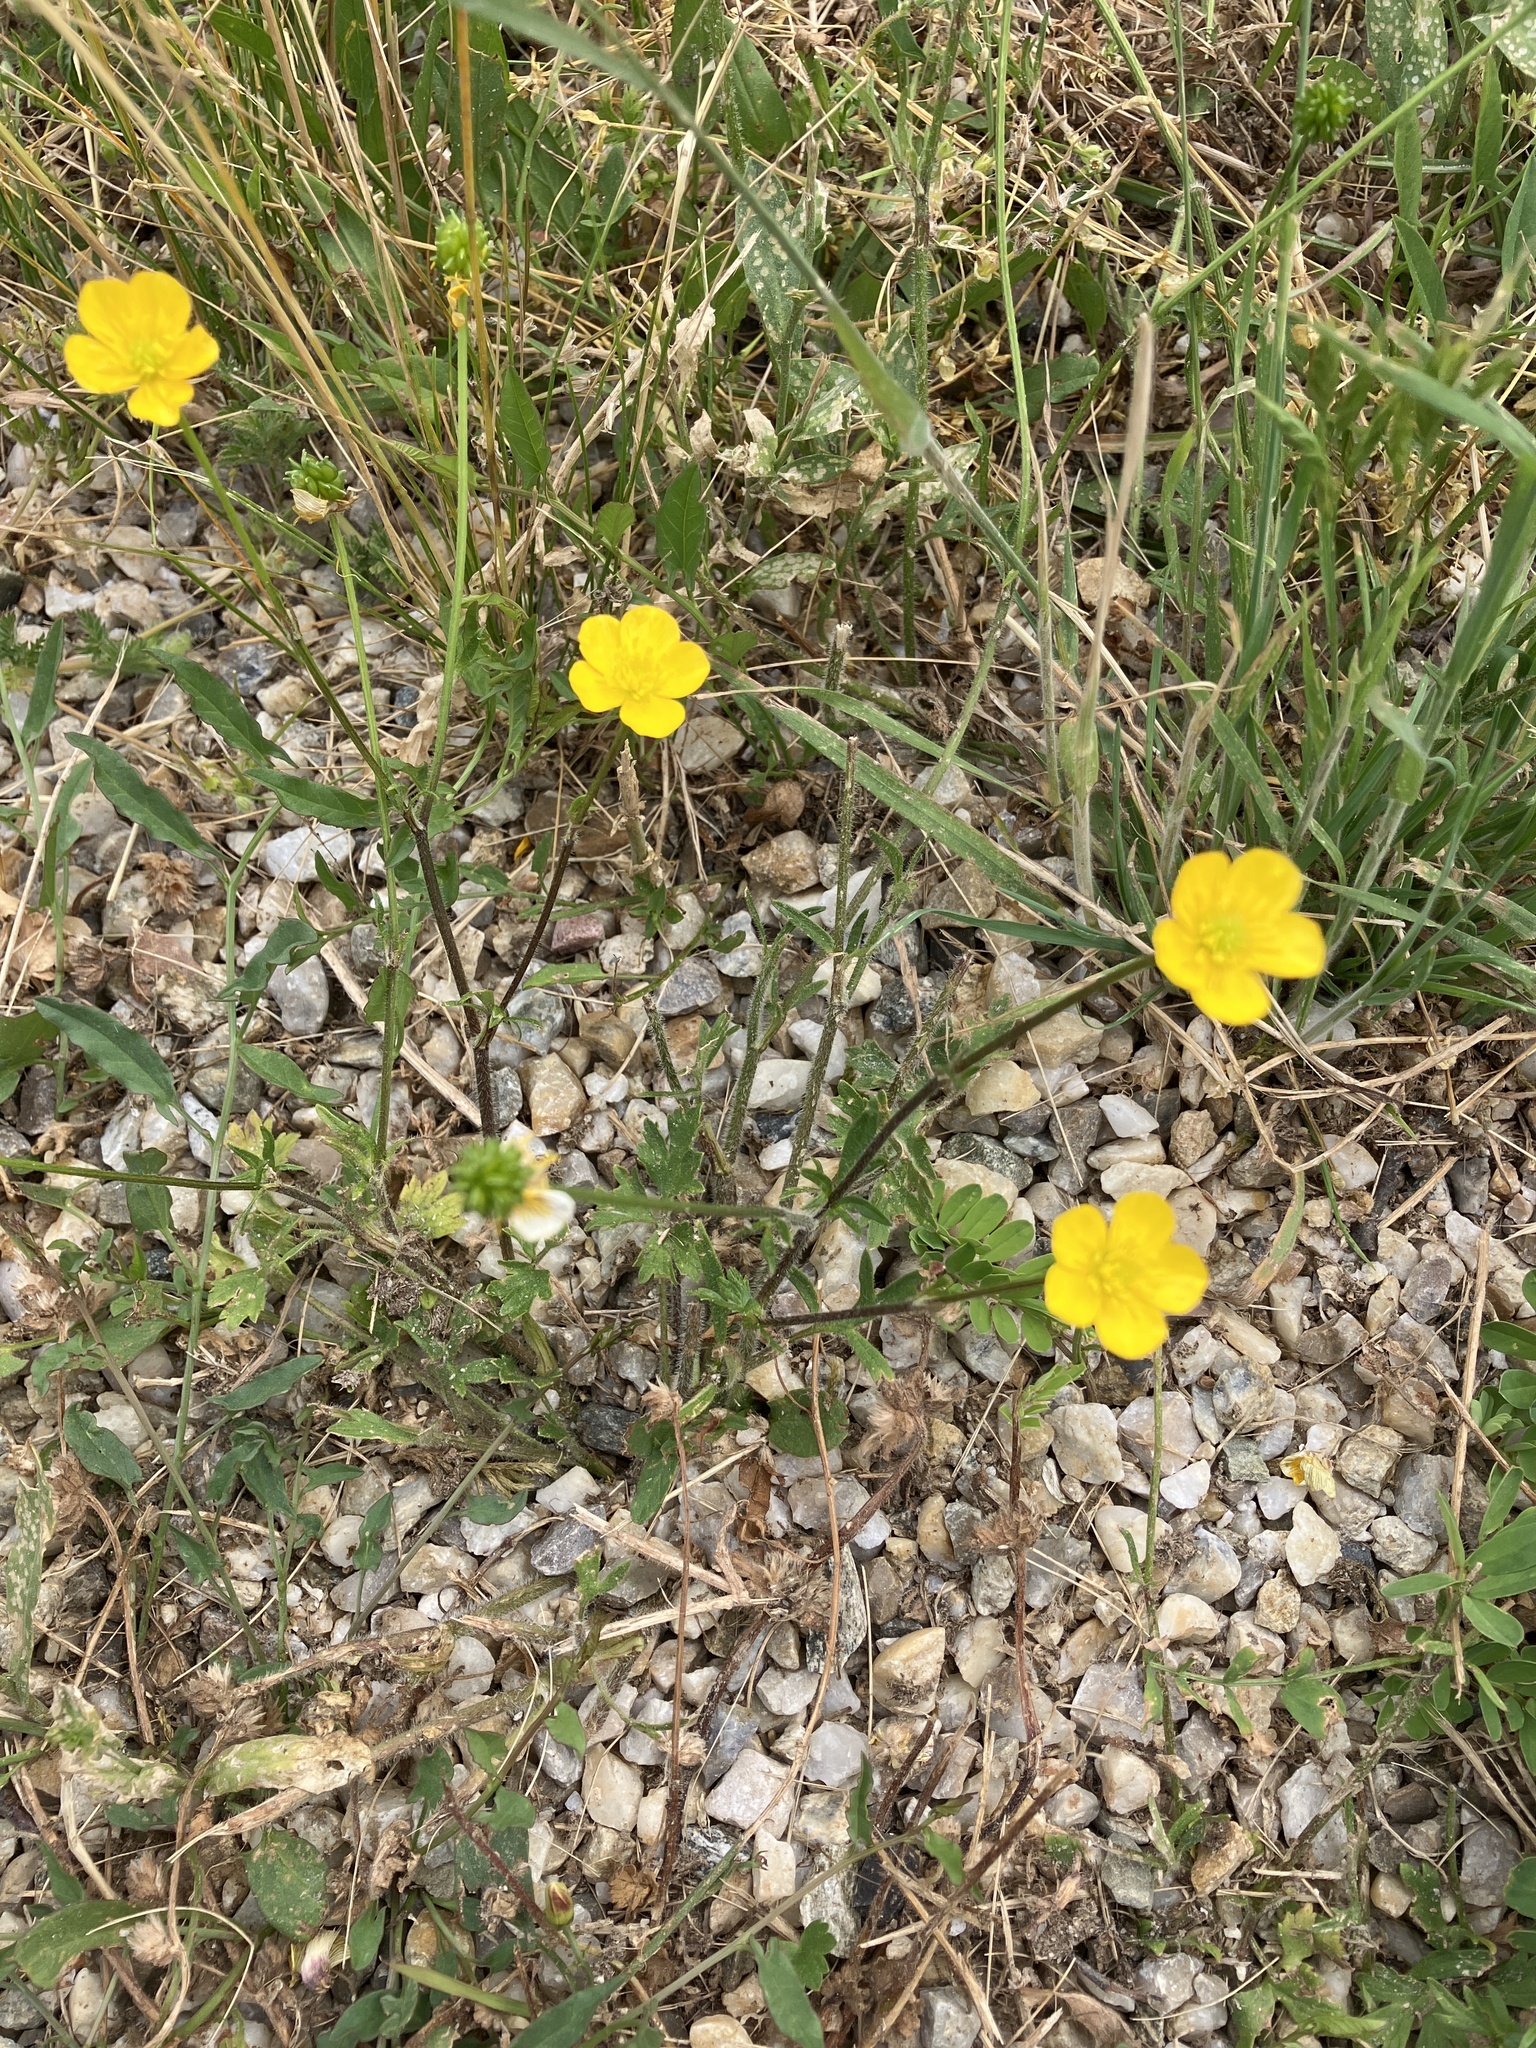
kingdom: Plantae
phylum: Tracheophyta
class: Magnoliopsida
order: Ranunculales
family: Ranunculaceae
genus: Ranunculus
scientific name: Ranunculus bulbosus
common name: Bulbous buttercup
